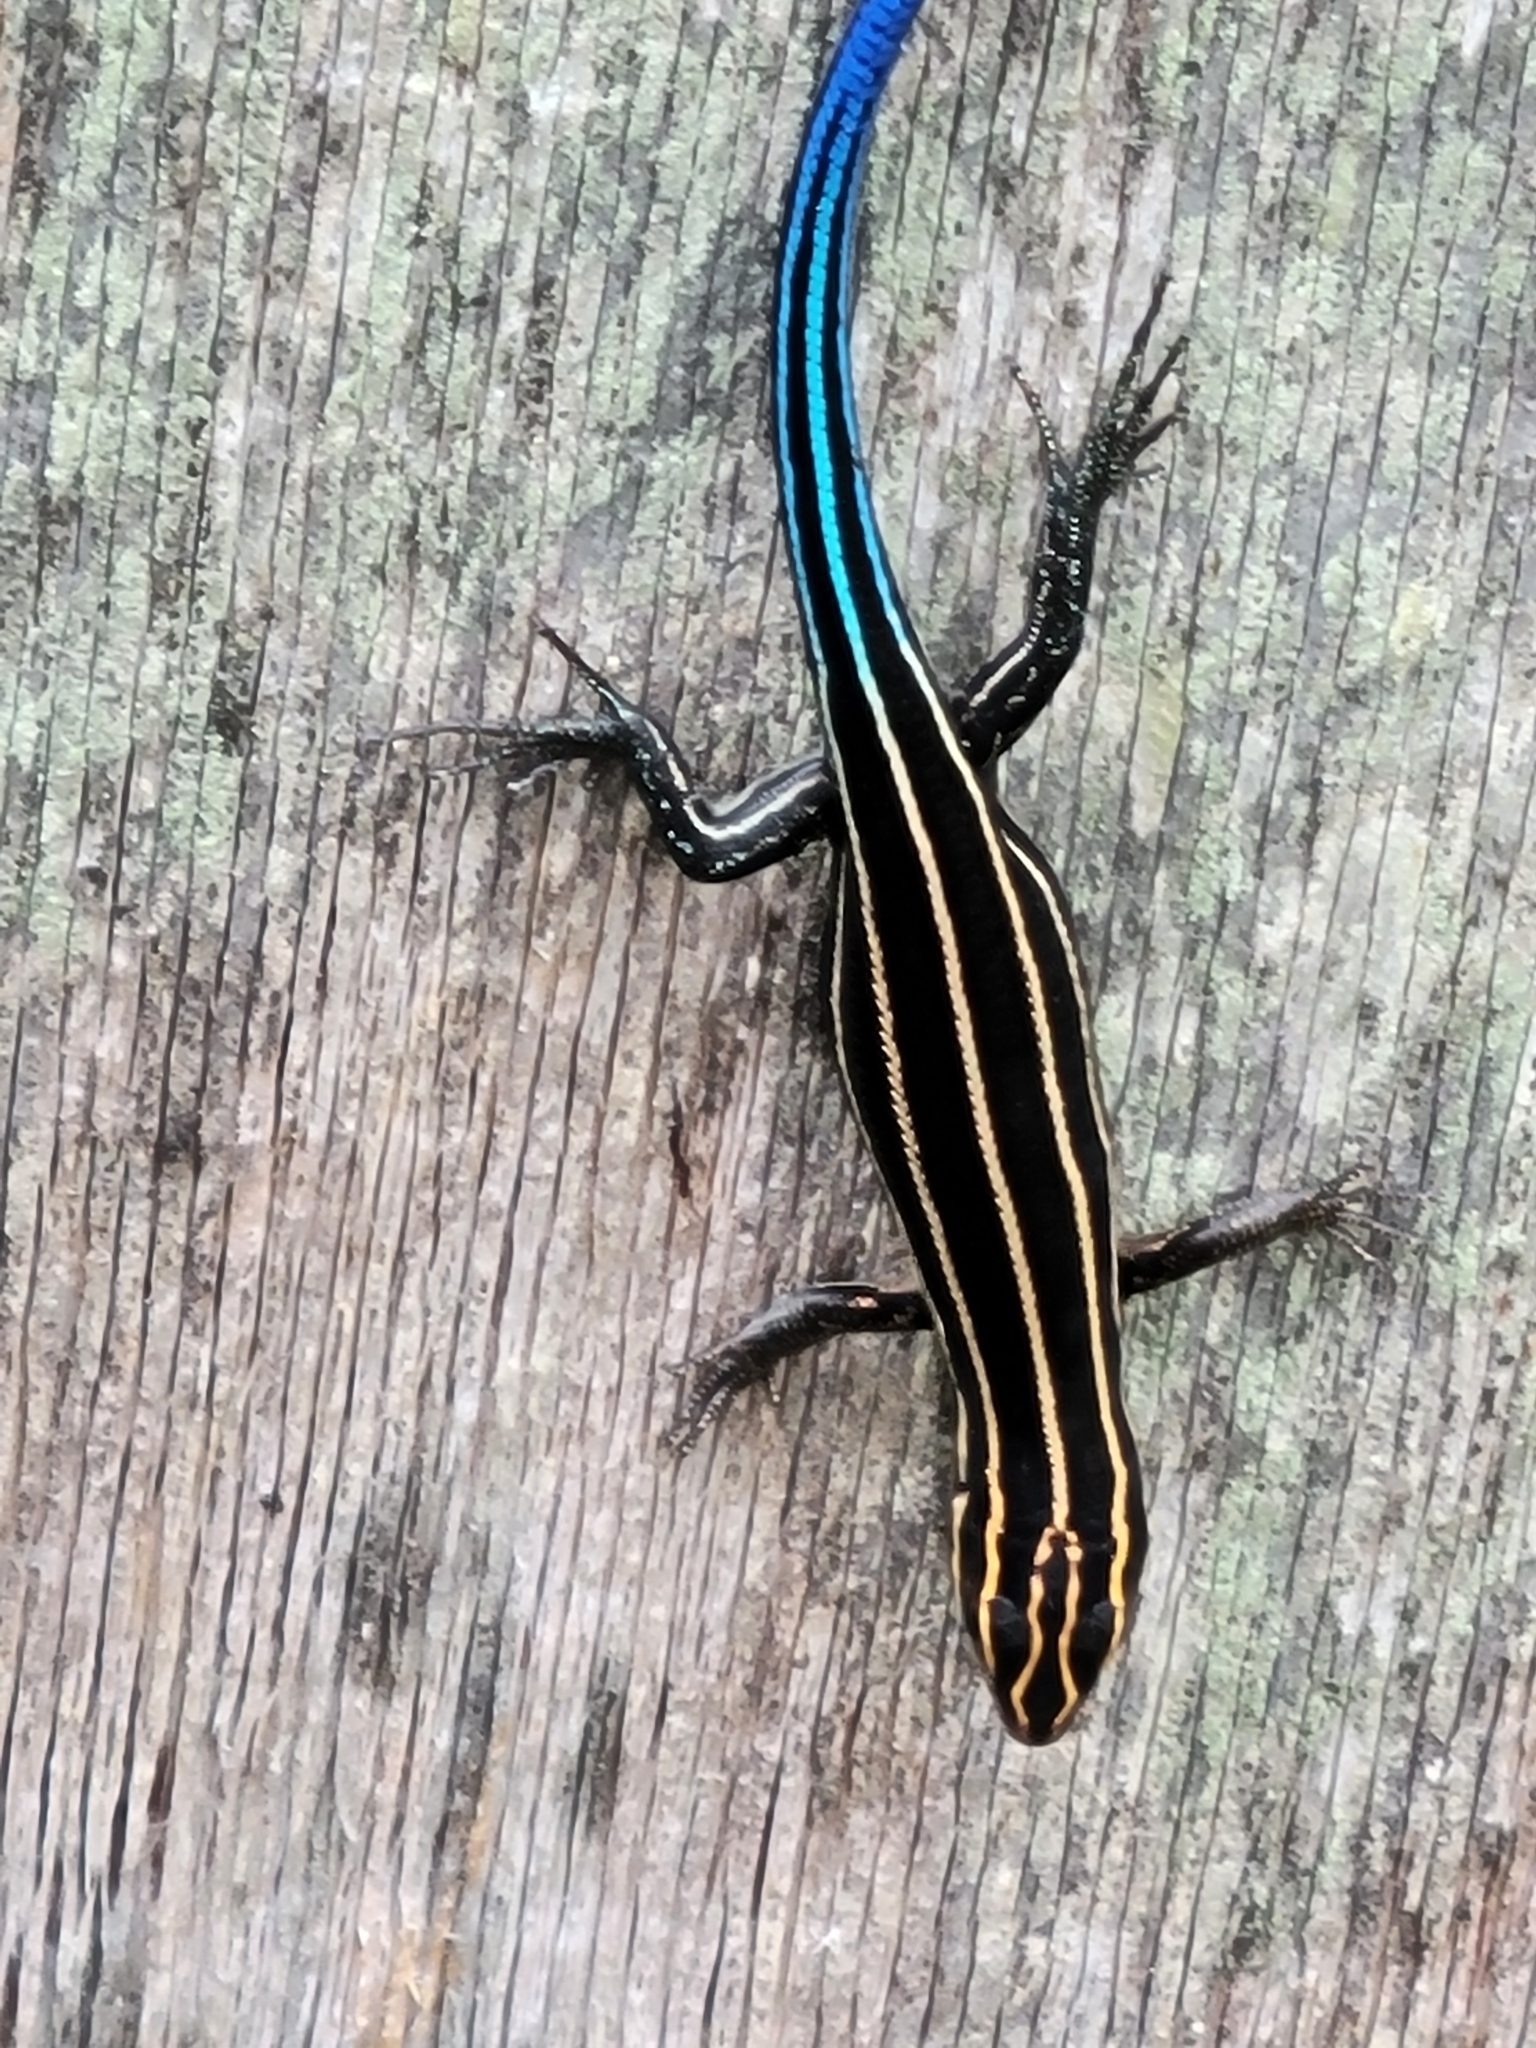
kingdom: Animalia
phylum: Chordata
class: Squamata
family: Scincidae
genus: Plestiodon
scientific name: Plestiodon fasciatus
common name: Five-lined skink
